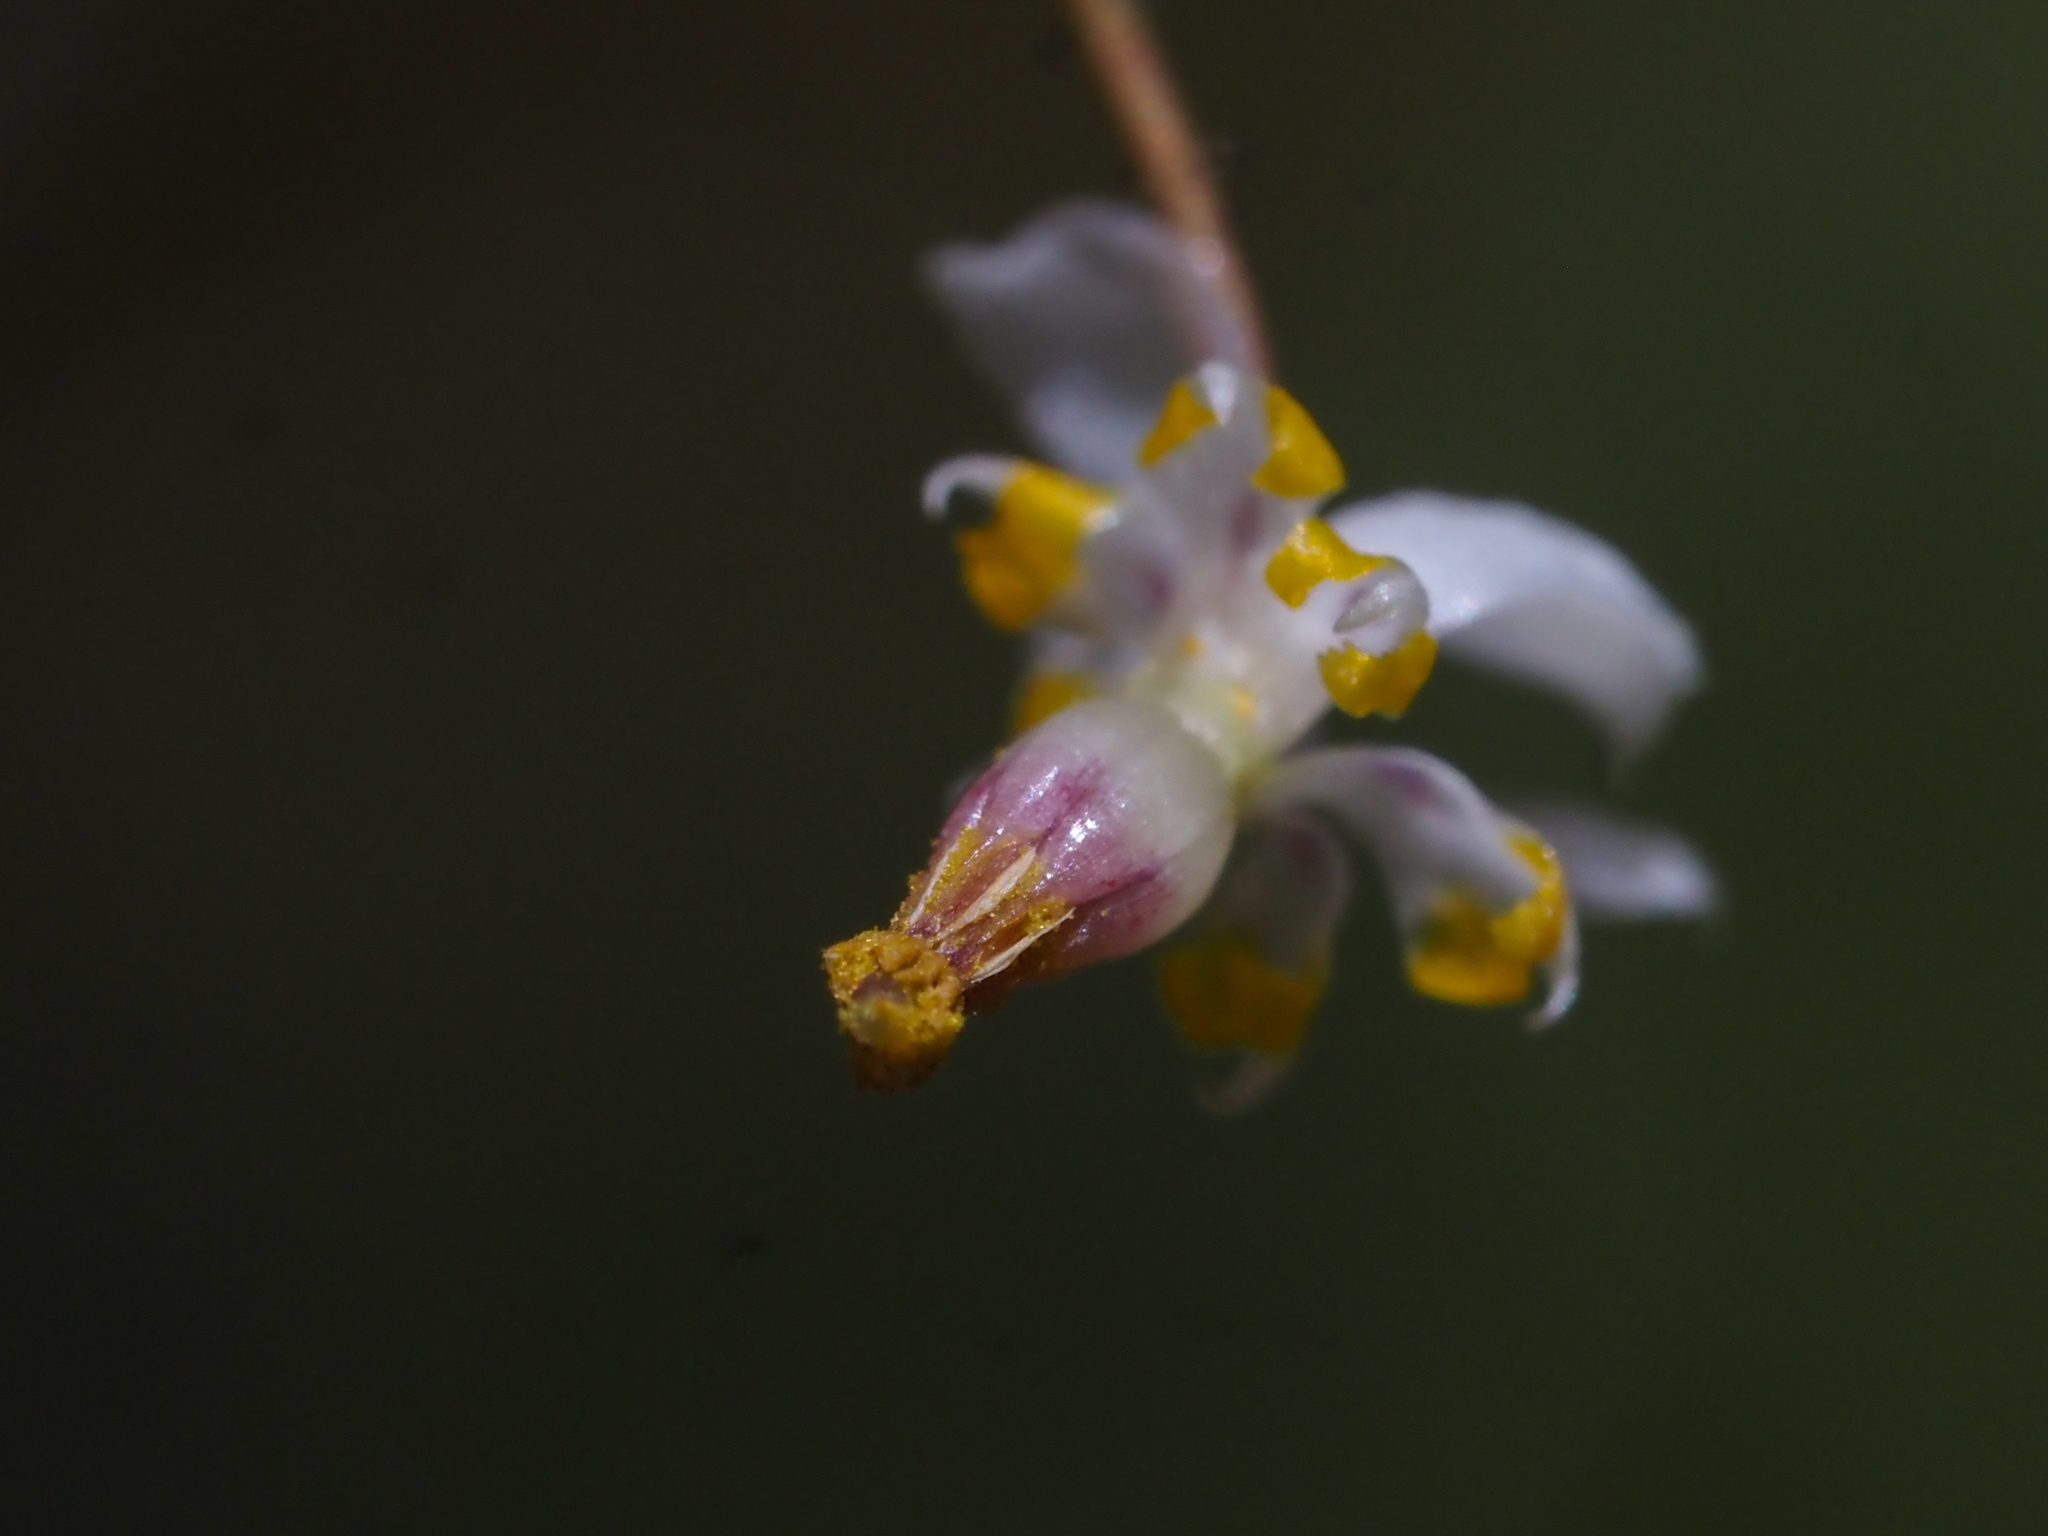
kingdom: Plantae
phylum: Tracheophyta
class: Magnoliopsida
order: Ranunculales
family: Berberidaceae
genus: Vancouveria
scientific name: Vancouveria planipetala
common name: Redwood-ivy
